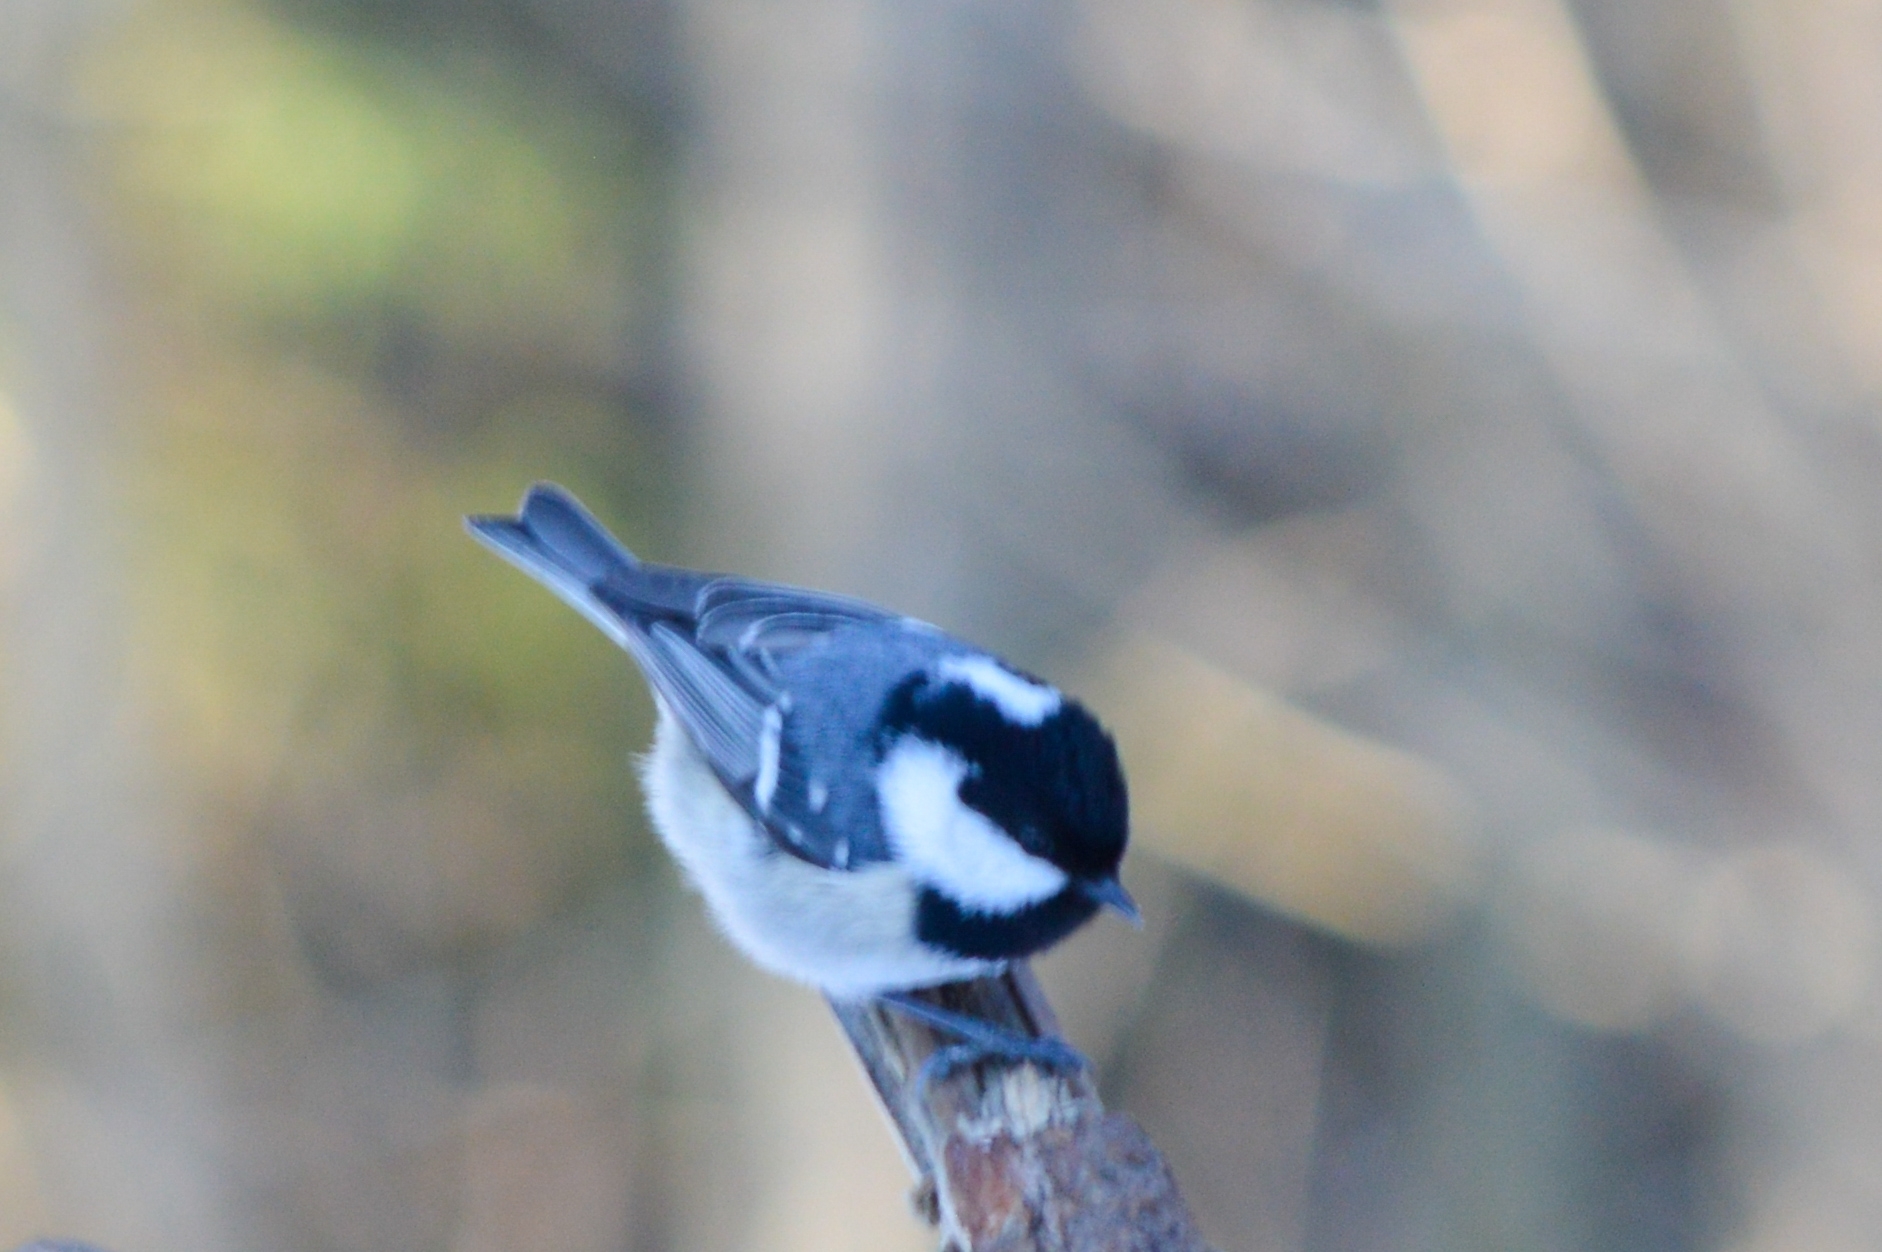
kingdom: Animalia
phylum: Chordata
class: Aves
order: Passeriformes
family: Paridae
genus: Periparus
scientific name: Periparus ater
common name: Coal tit
